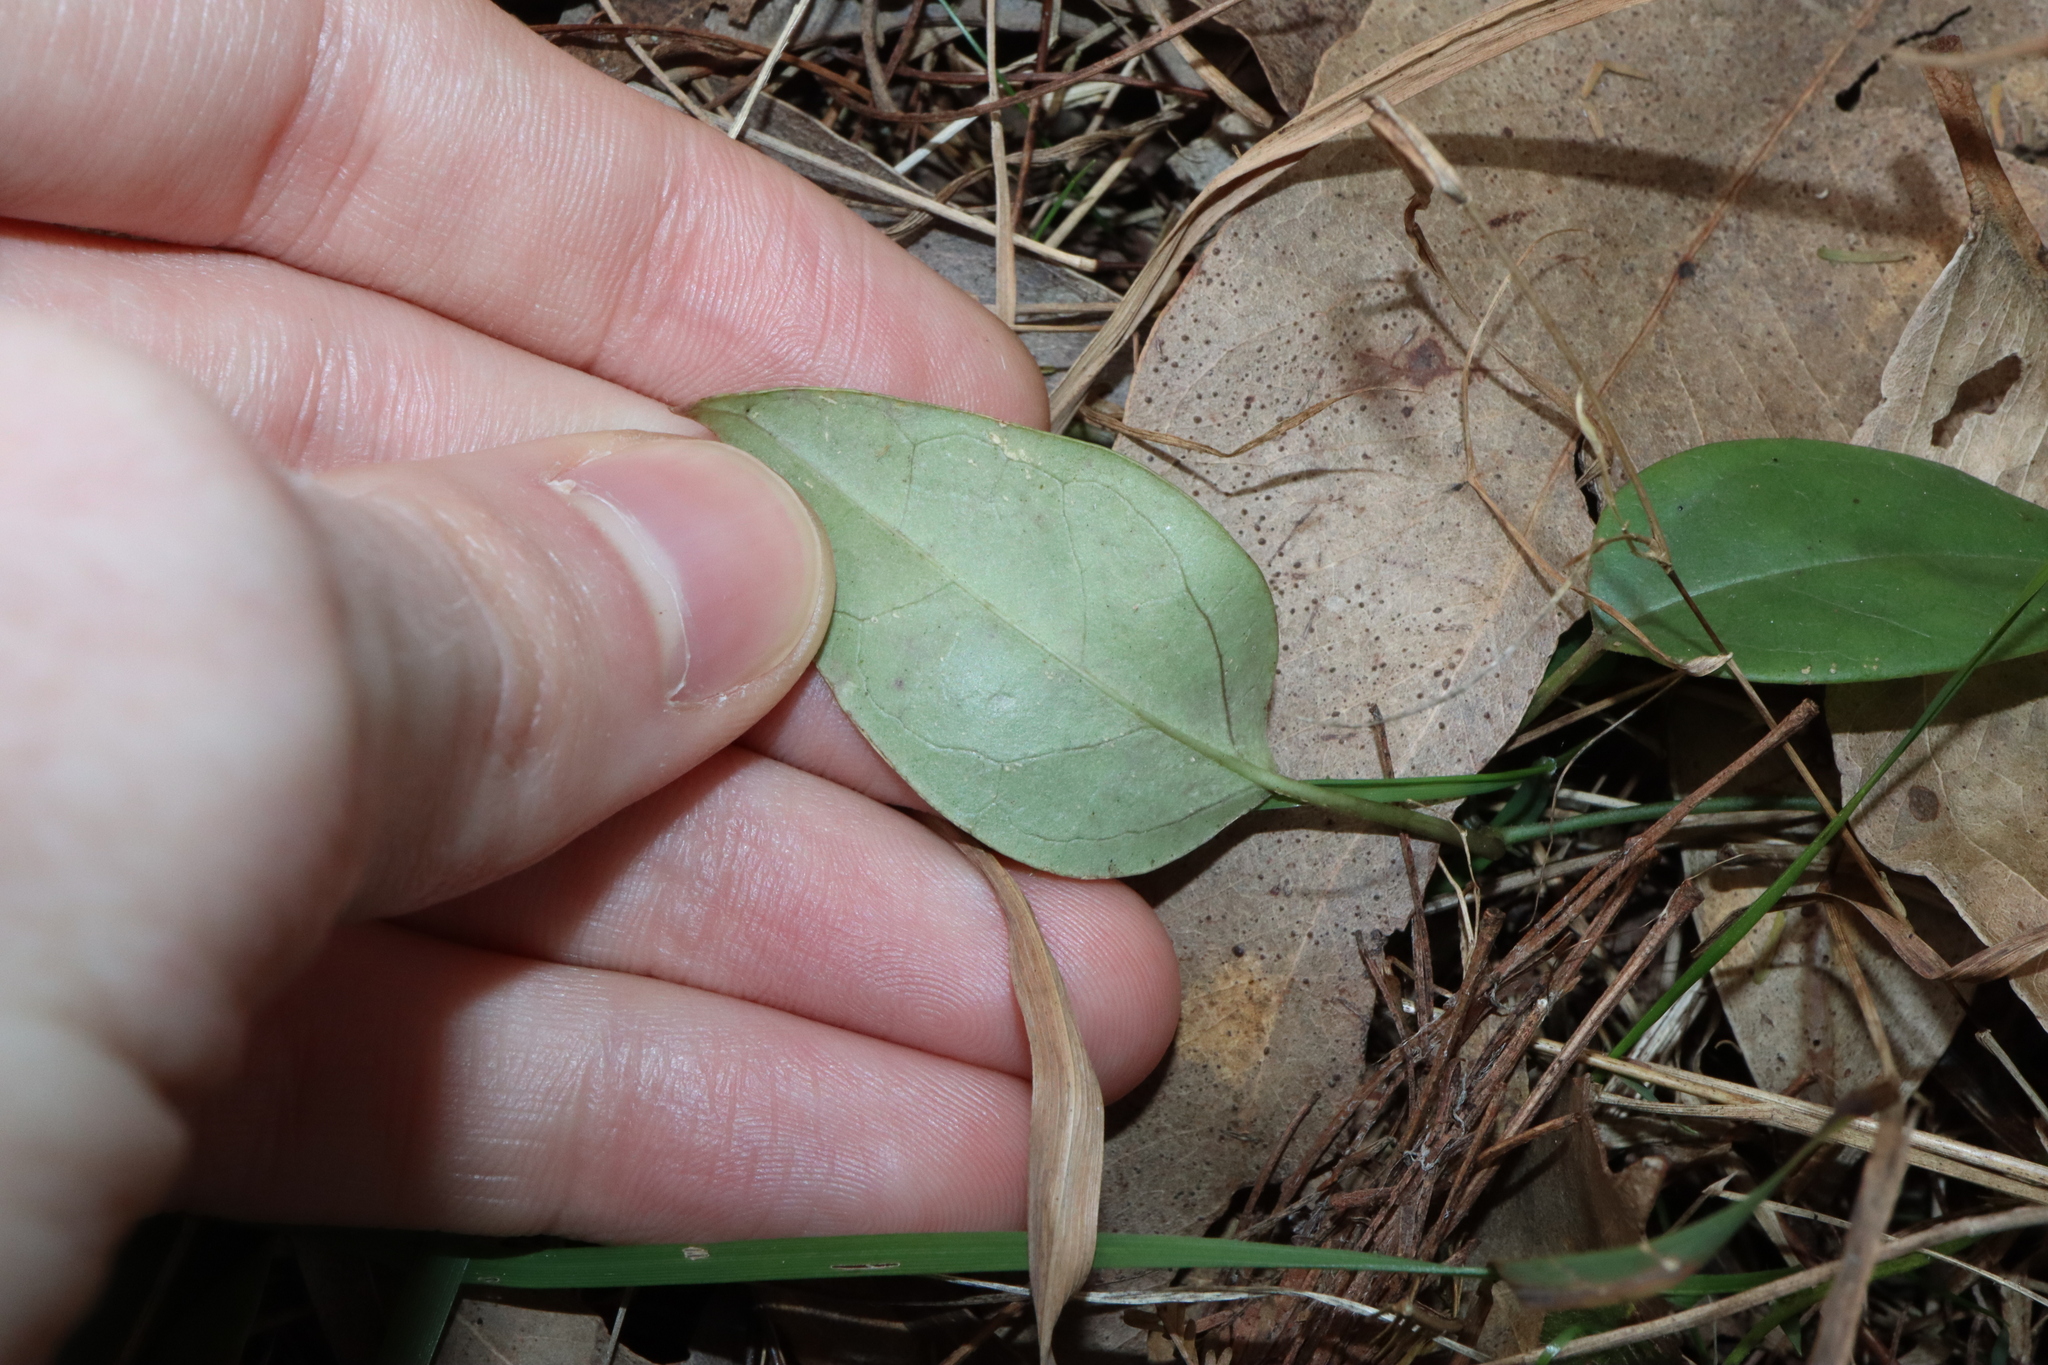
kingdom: Plantae
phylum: Tracheophyta
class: Magnoliopsida
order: Gentianales
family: Apocynaceae
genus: Vincetoxicum
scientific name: Vincetoxicum barbatum
